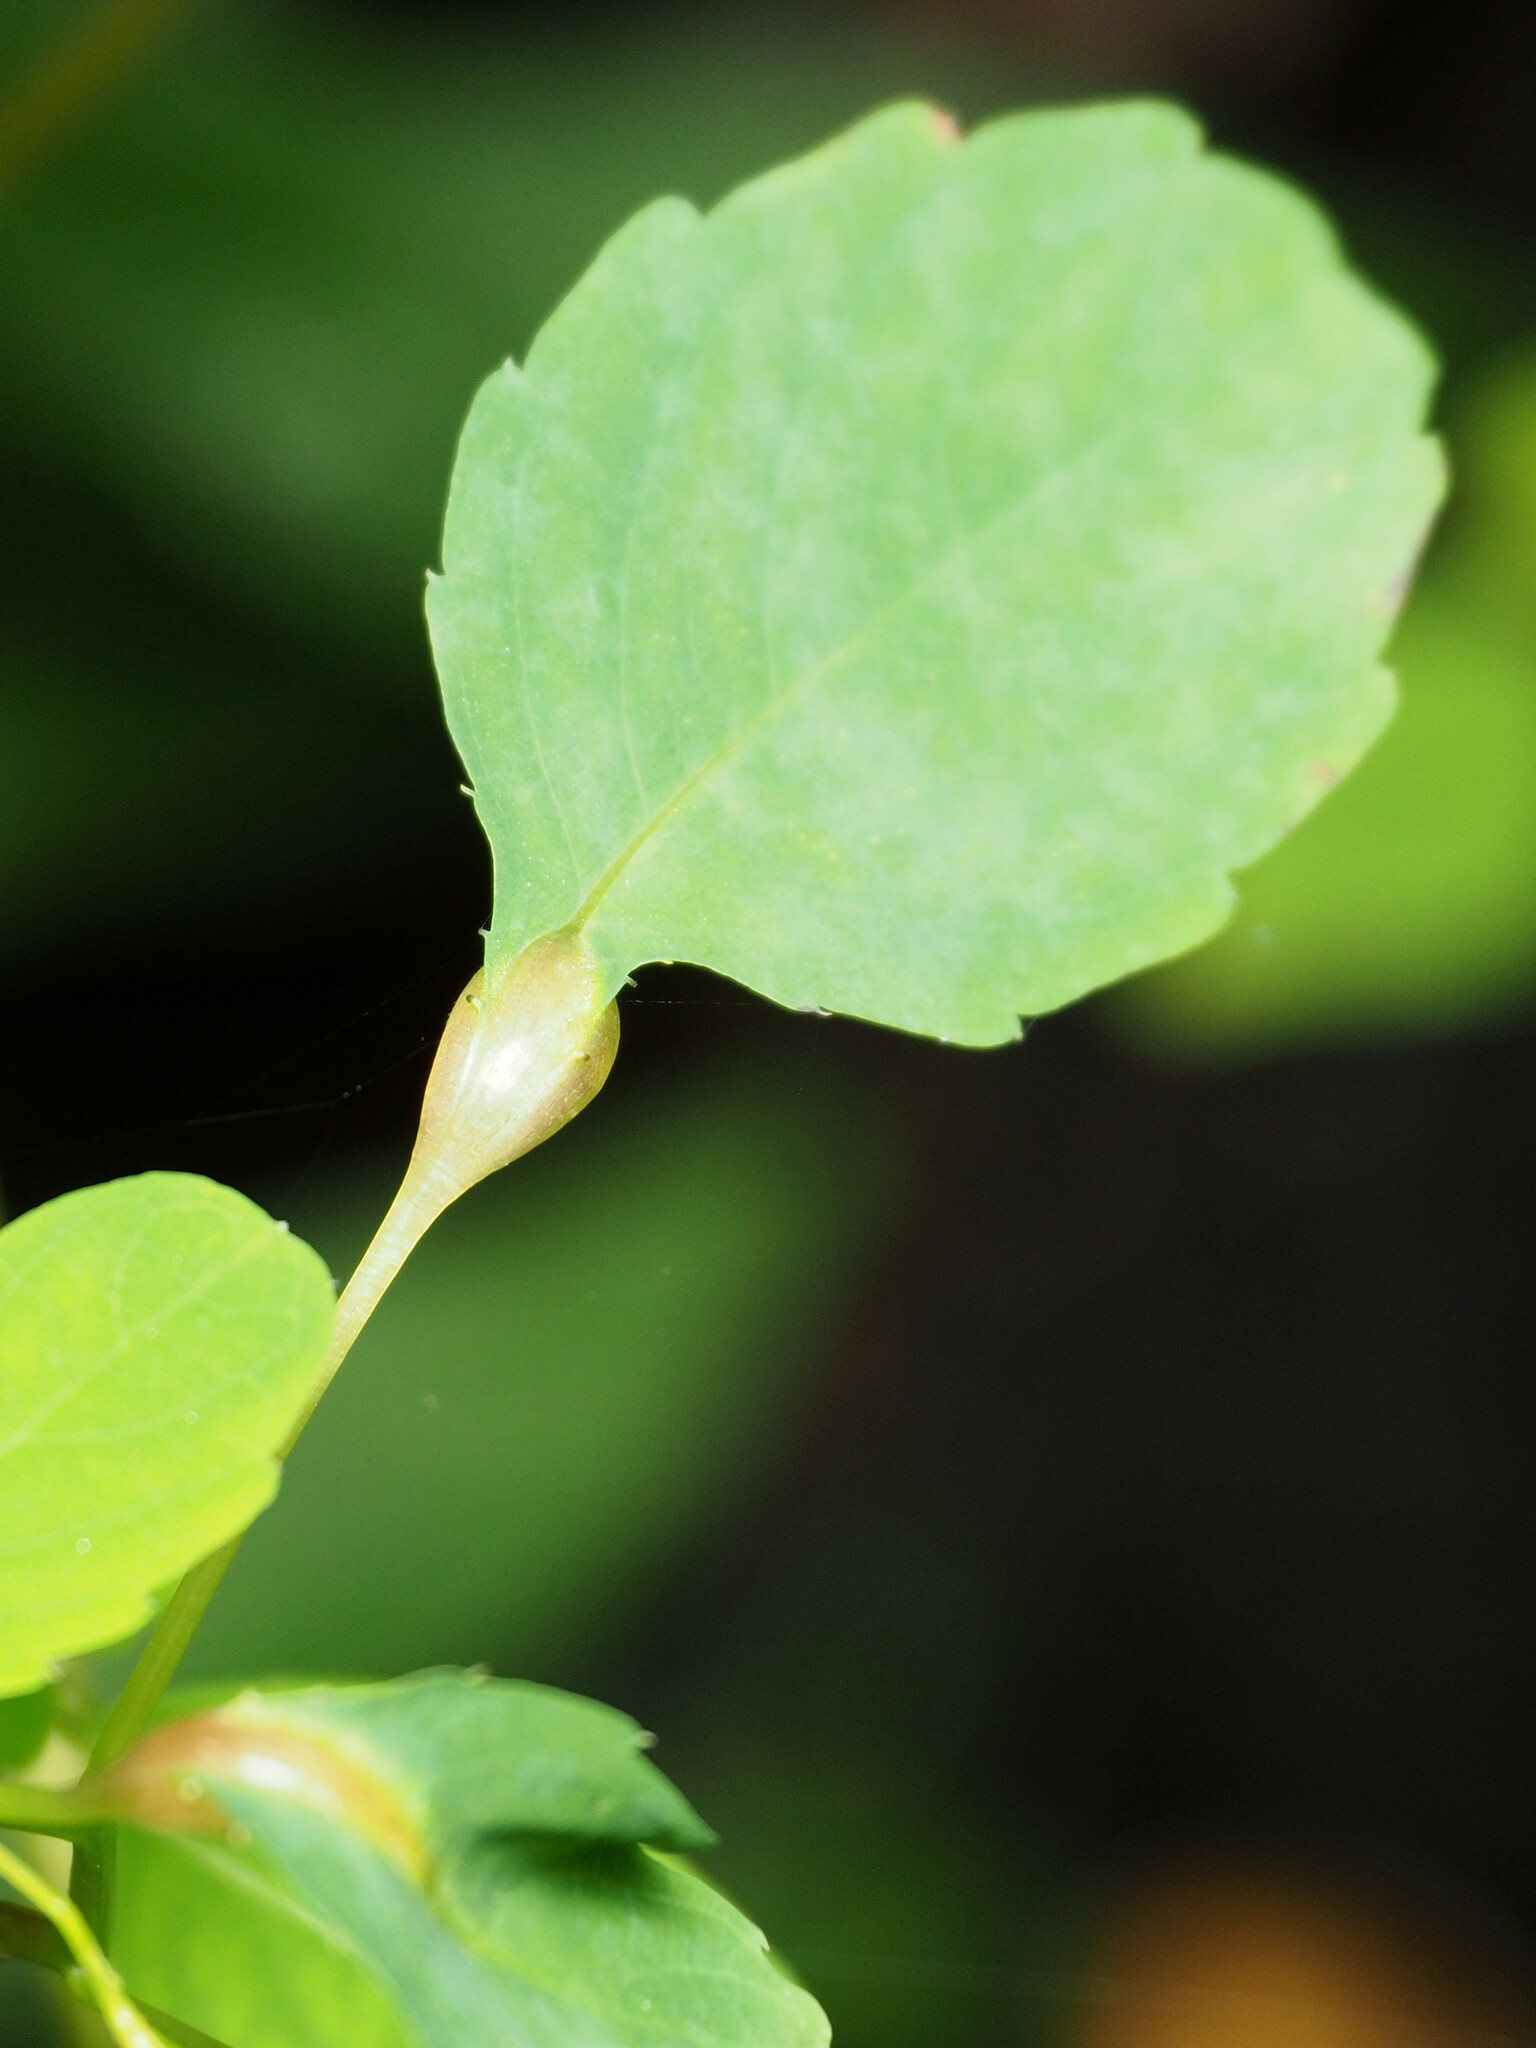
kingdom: Animalia
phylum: Arthropoda
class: Insecta
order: Diptera
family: Cecidomyiidae
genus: Neolasioptera
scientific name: Neolasioptera impatientifolia
